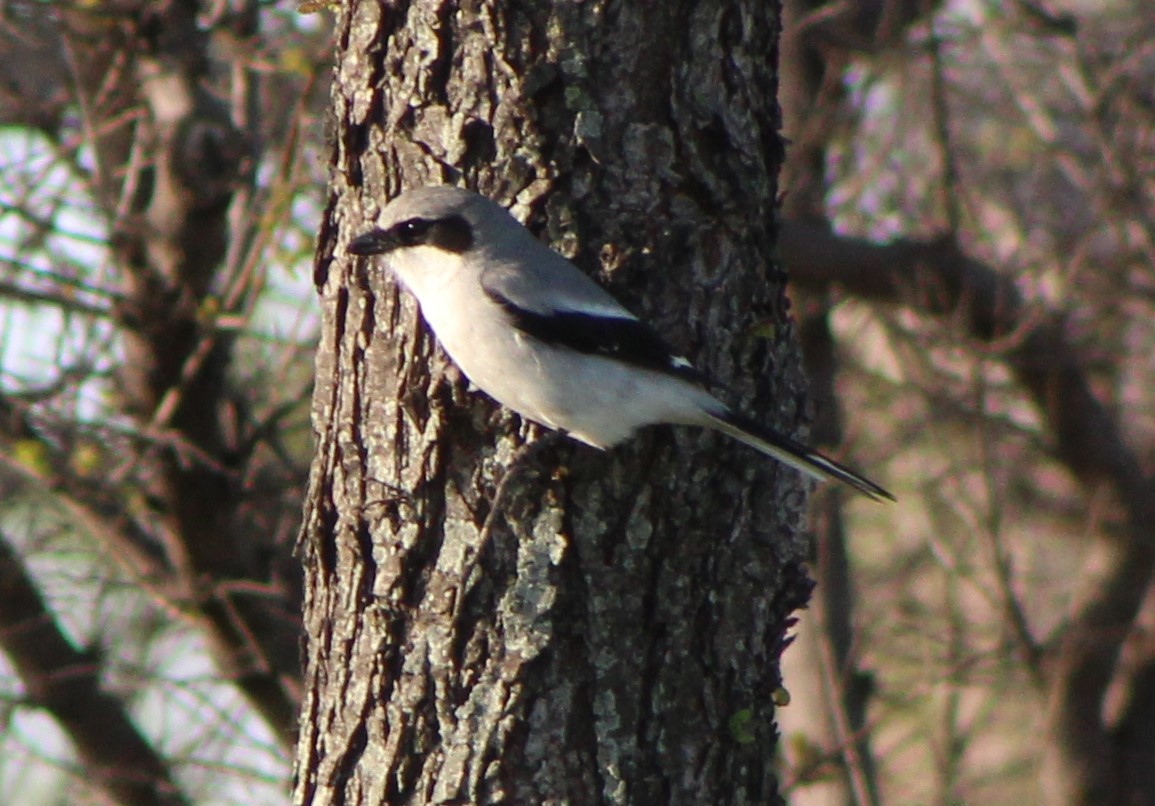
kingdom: Animalia
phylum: Chordata
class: Aves
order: Passeriformes
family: Laniidae
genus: Lanius
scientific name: Lanius ludovicianus
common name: Loggerhead shrike
